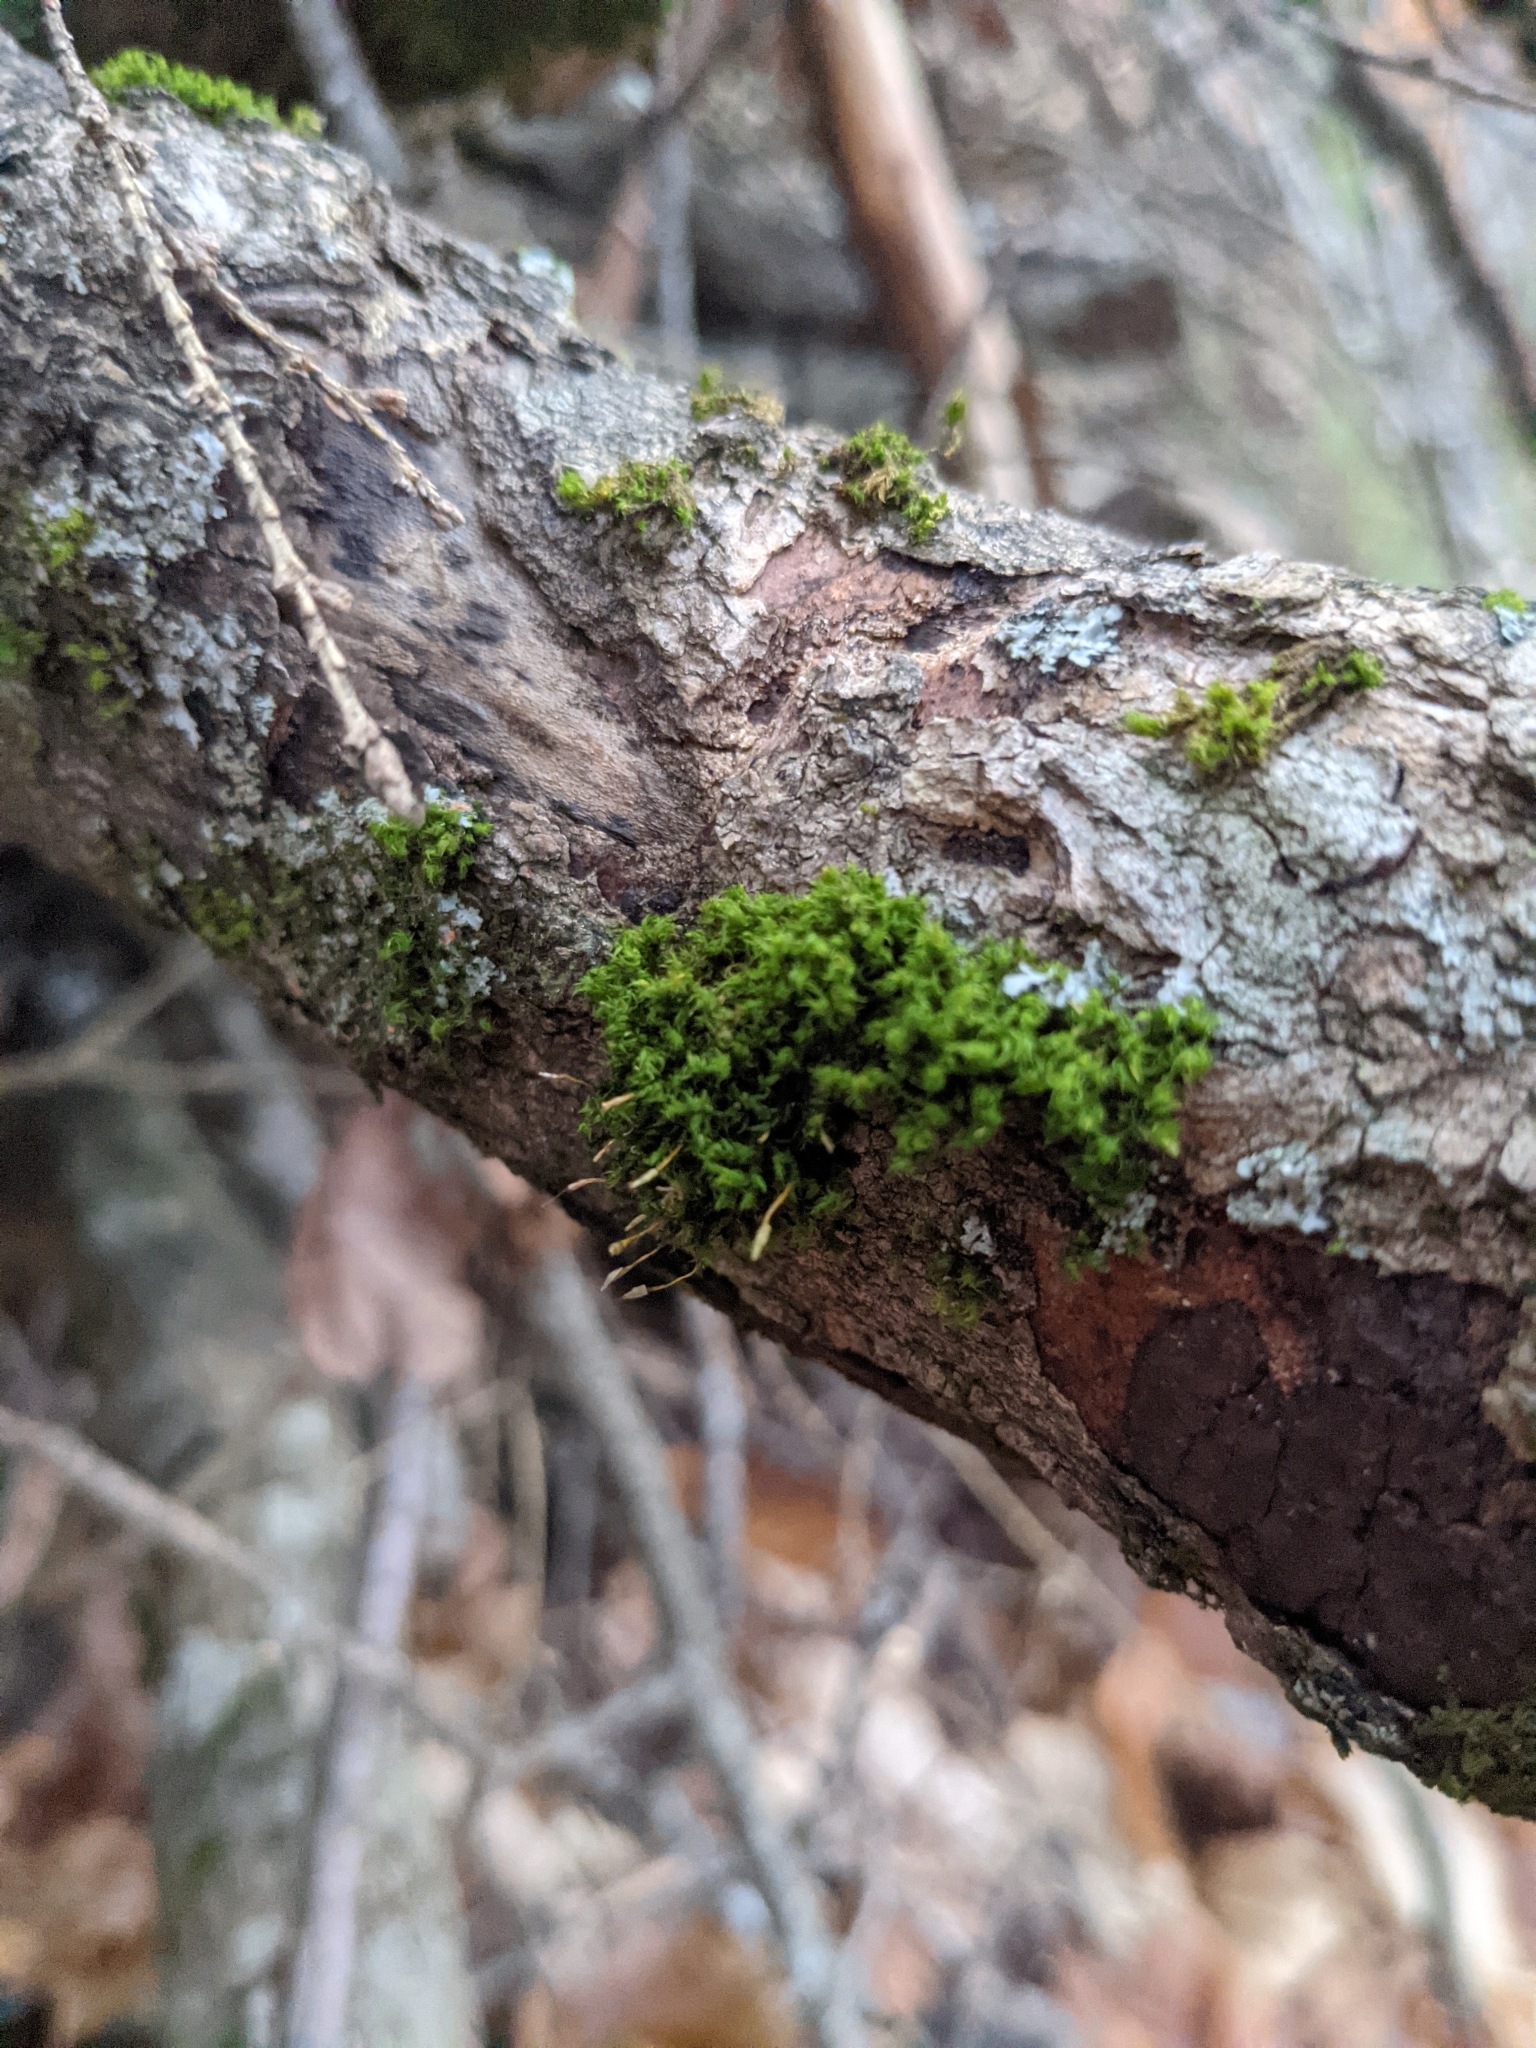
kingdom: Plantae
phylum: Bryophyta
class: Bryopsida
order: Orthotrichales
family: Orthotrichaceae
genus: Ulota
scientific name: Ulota crispa
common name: Crisped pincushion moss
